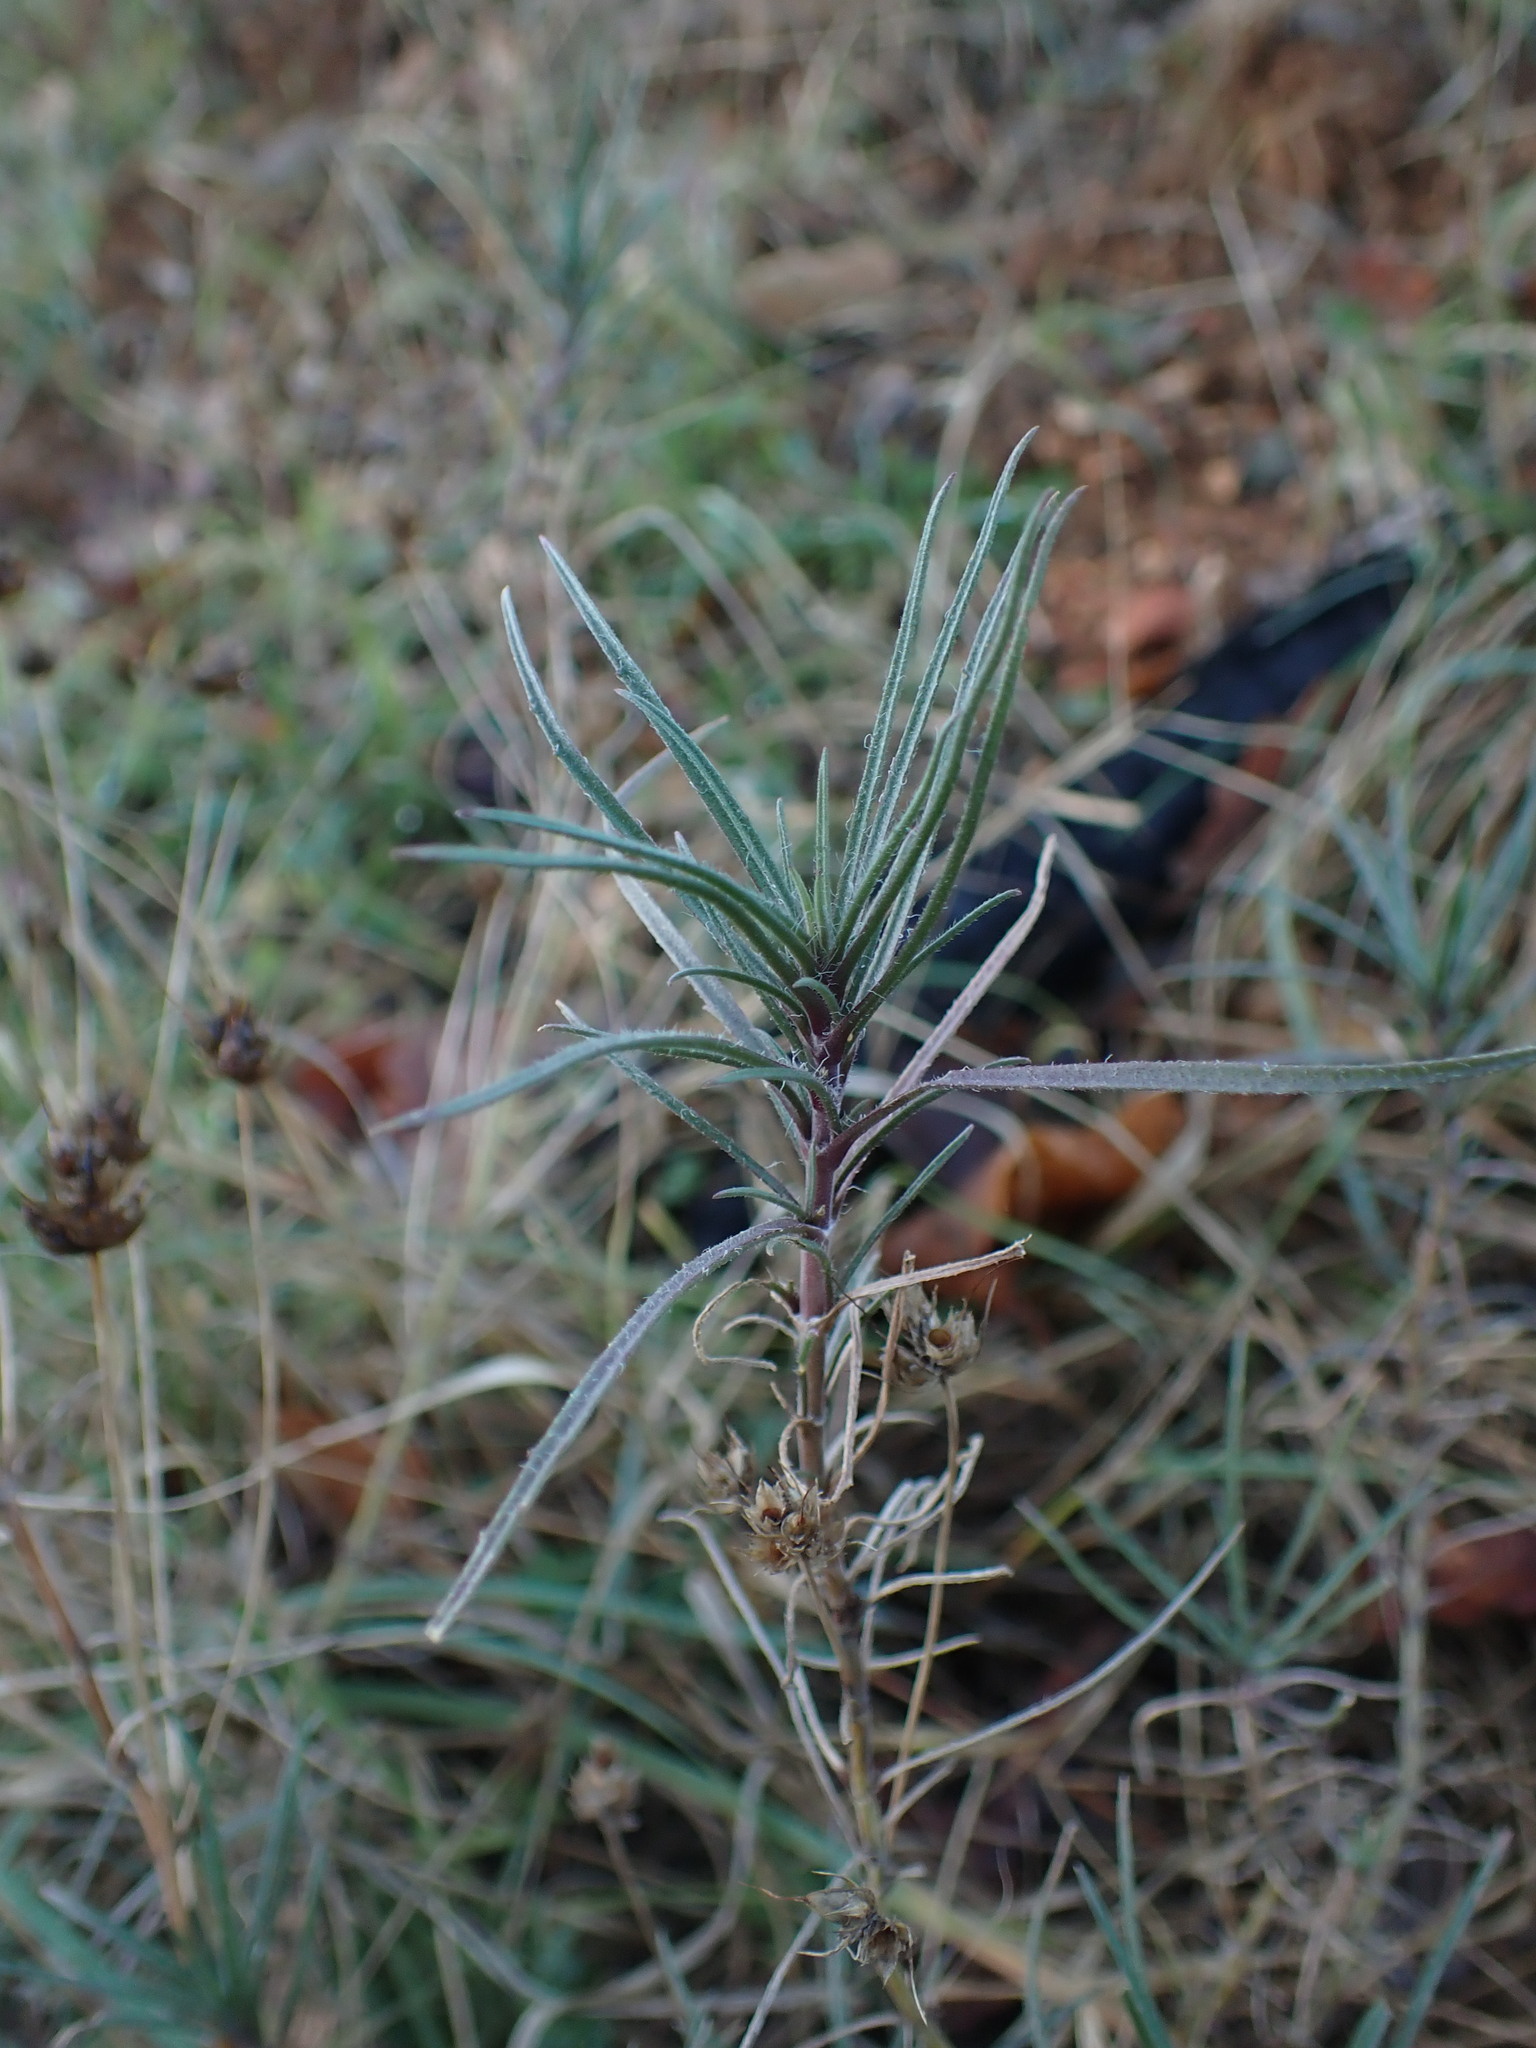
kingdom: Plantae
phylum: Tracheophyta
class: Magnoliopsida
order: Lamiales
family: Plantaginaceae
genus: Plantago
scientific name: Plantago sempervirens
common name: Shrubby plantain
